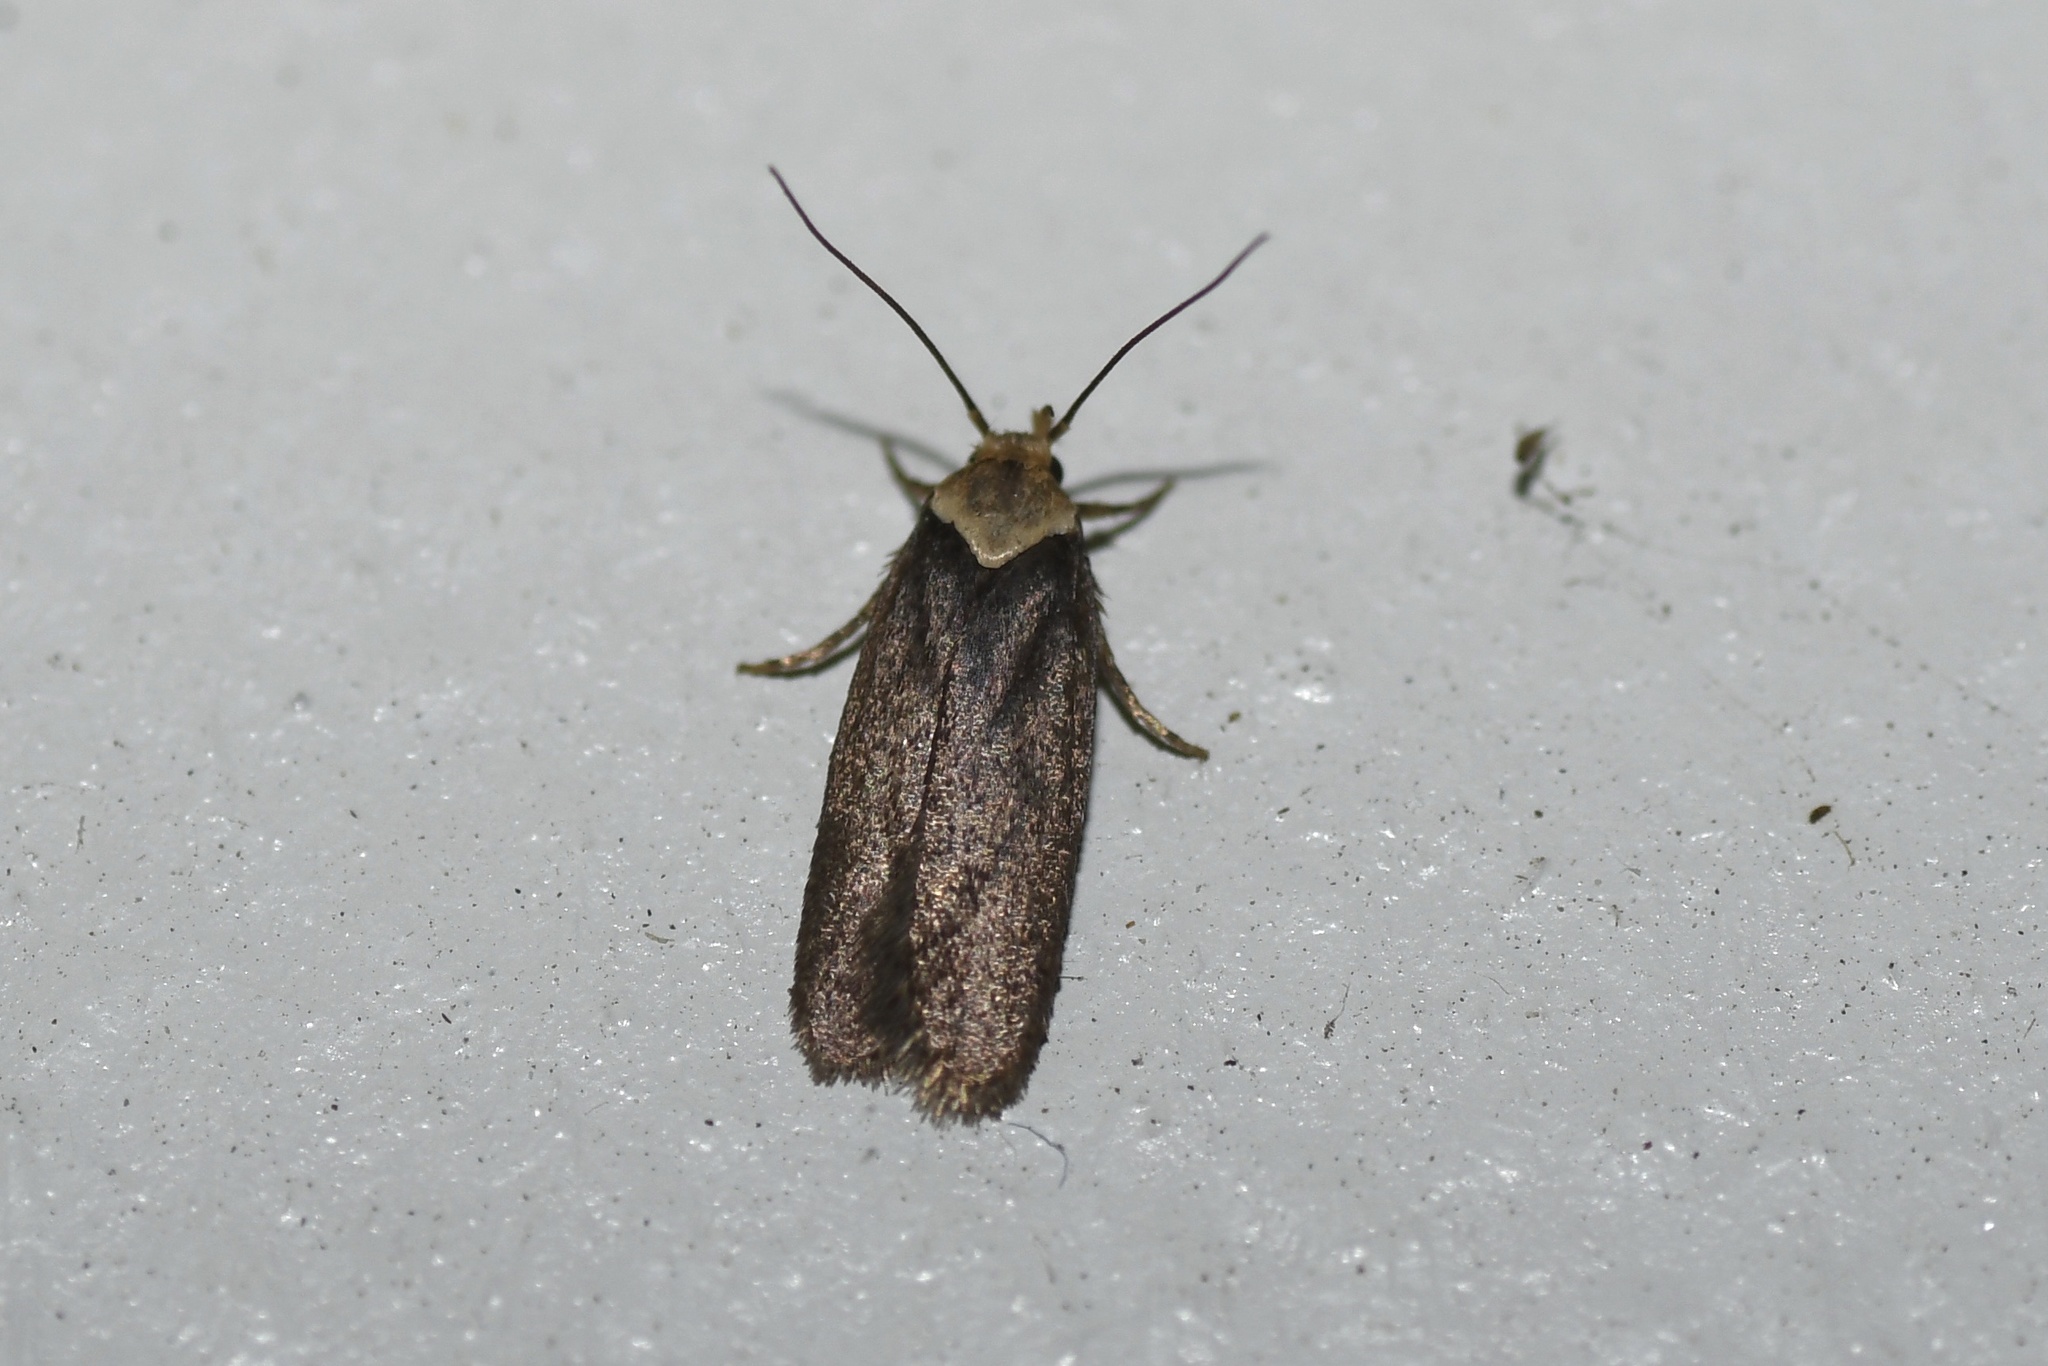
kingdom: Animalia
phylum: Arthropoda
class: Insecta
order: Lepidoptera
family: Depressariidae
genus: Depressaria
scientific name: Depressaria depressana
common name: Lost flat-body
